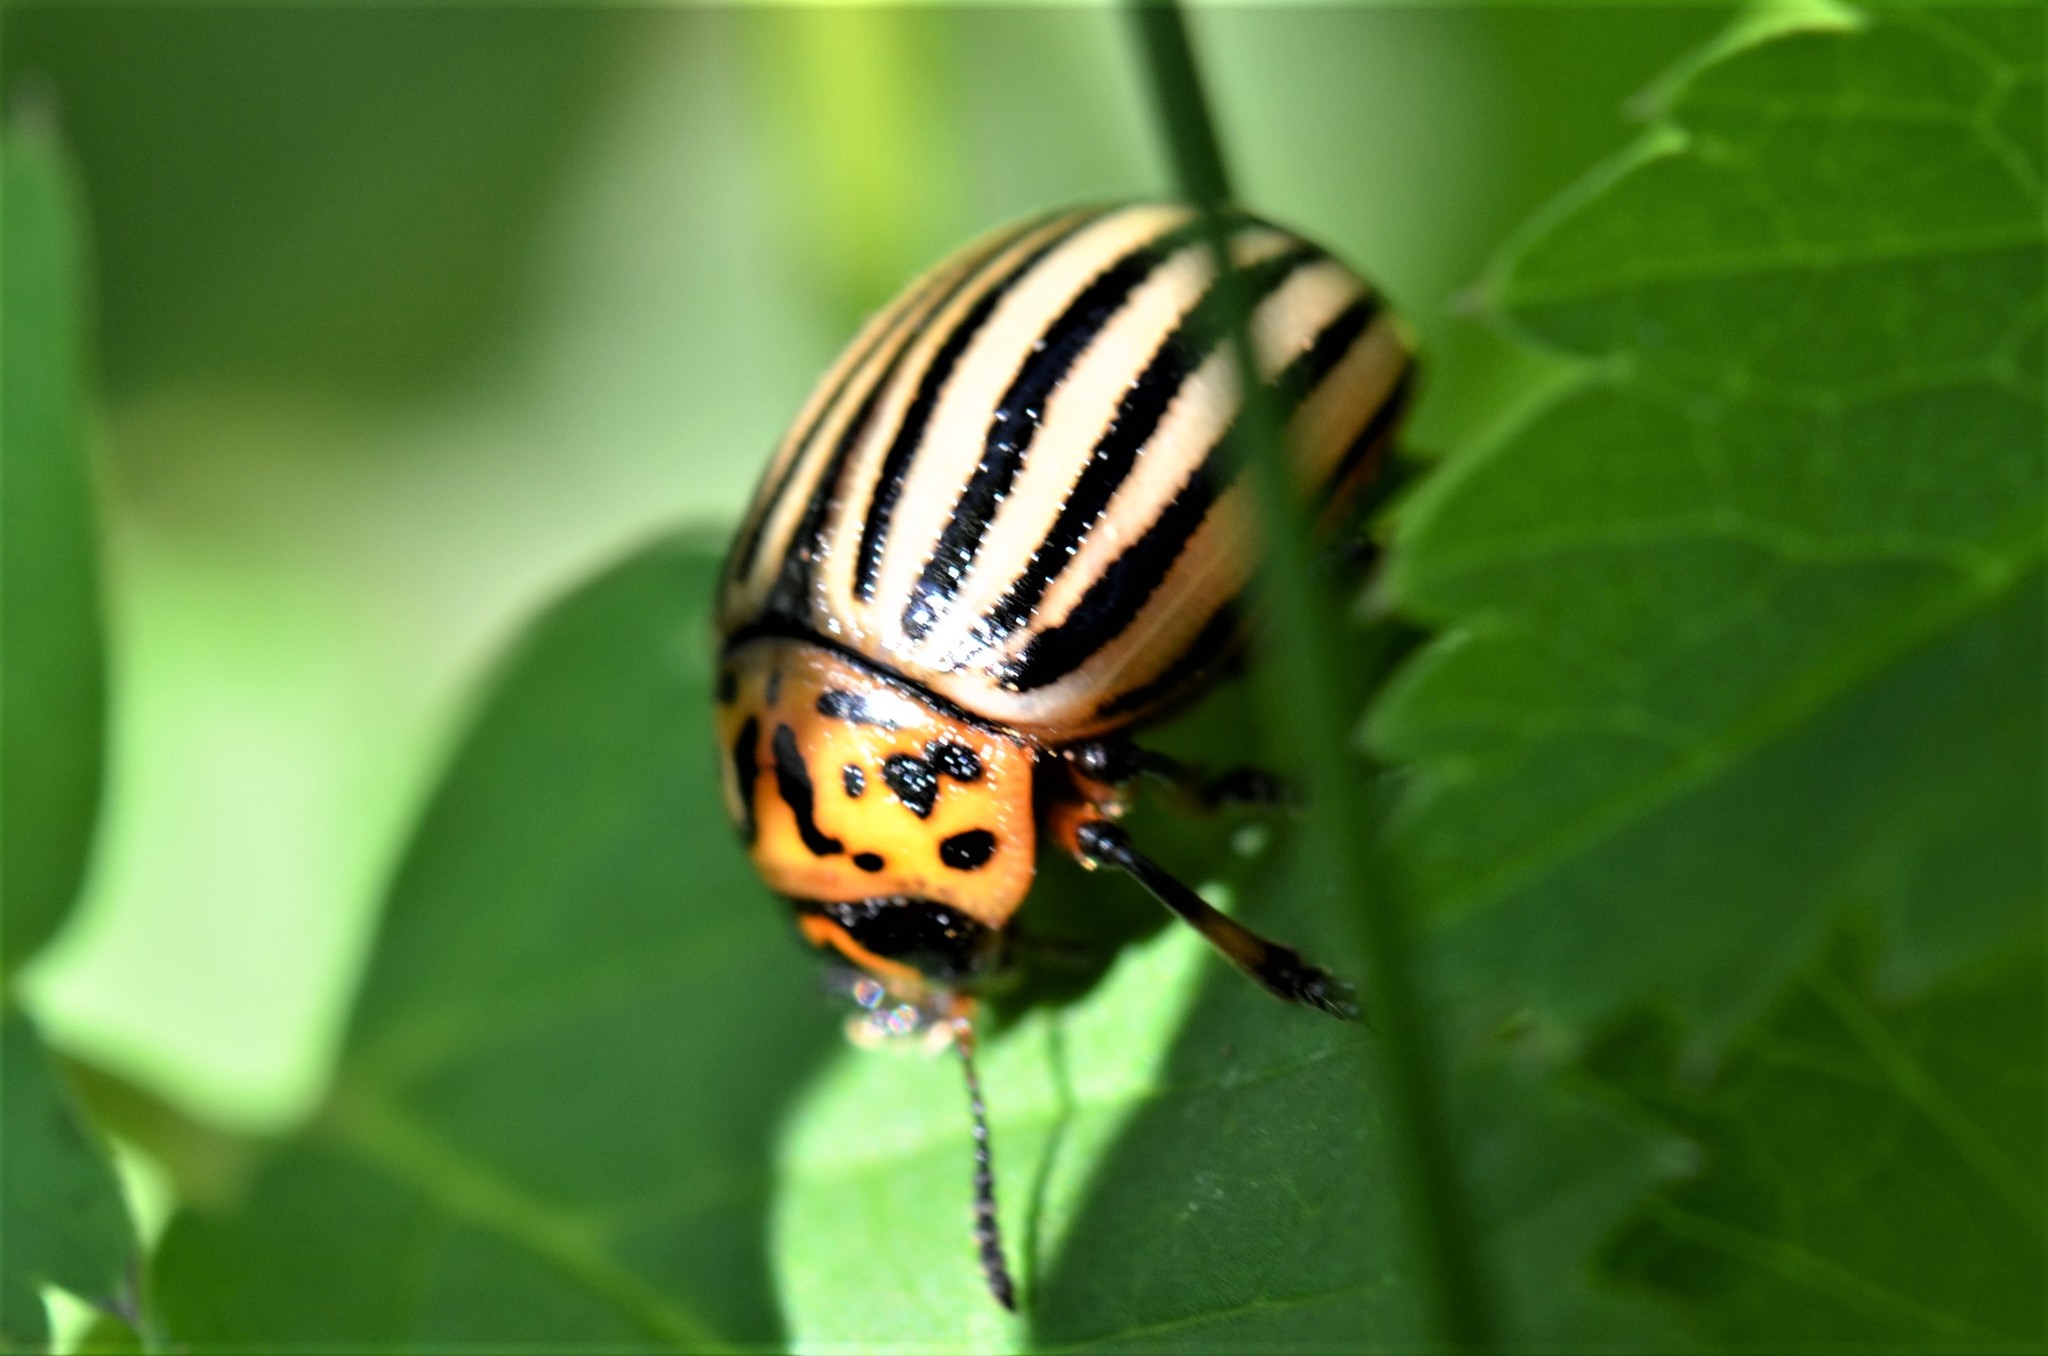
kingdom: Animalia
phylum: Arthropoda
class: Insecta
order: Coleoptera
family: Chrysomelidae
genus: Leptinotarsa
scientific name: Leptinotarsa decemlineata
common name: Colorado potato beetle
